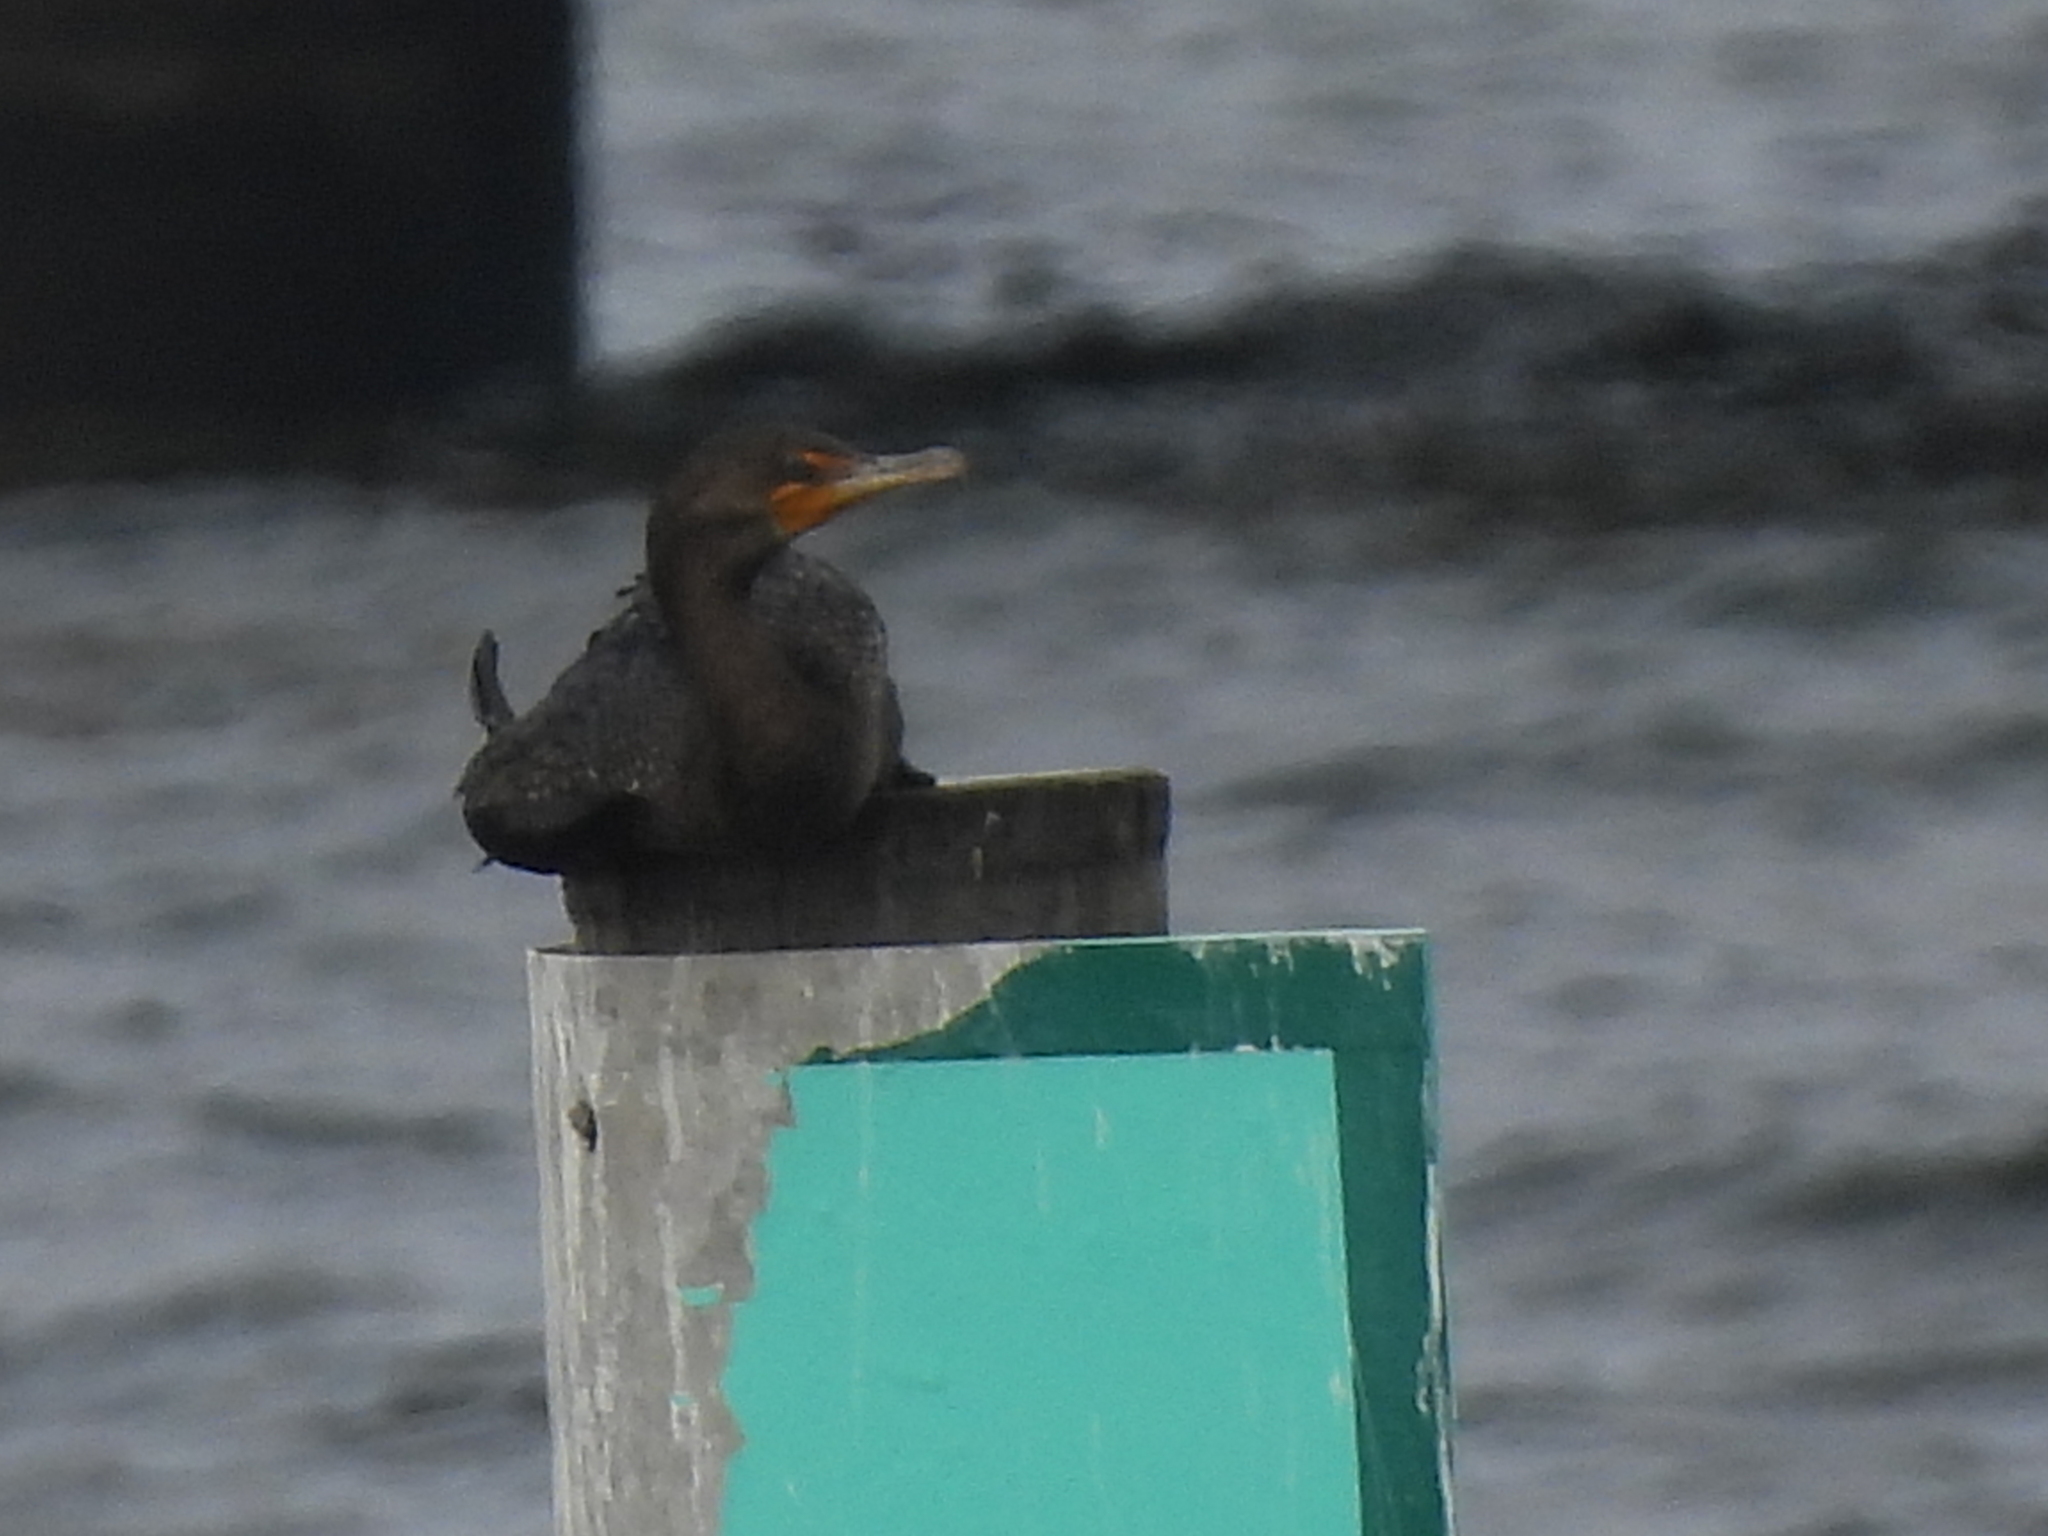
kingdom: Animalia
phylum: Chordata
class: Aves
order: Suliformes
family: Phalacrocoracidae
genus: Phalacrocorax
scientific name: Phalacrocorax auritus
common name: Double-crested cormorant
